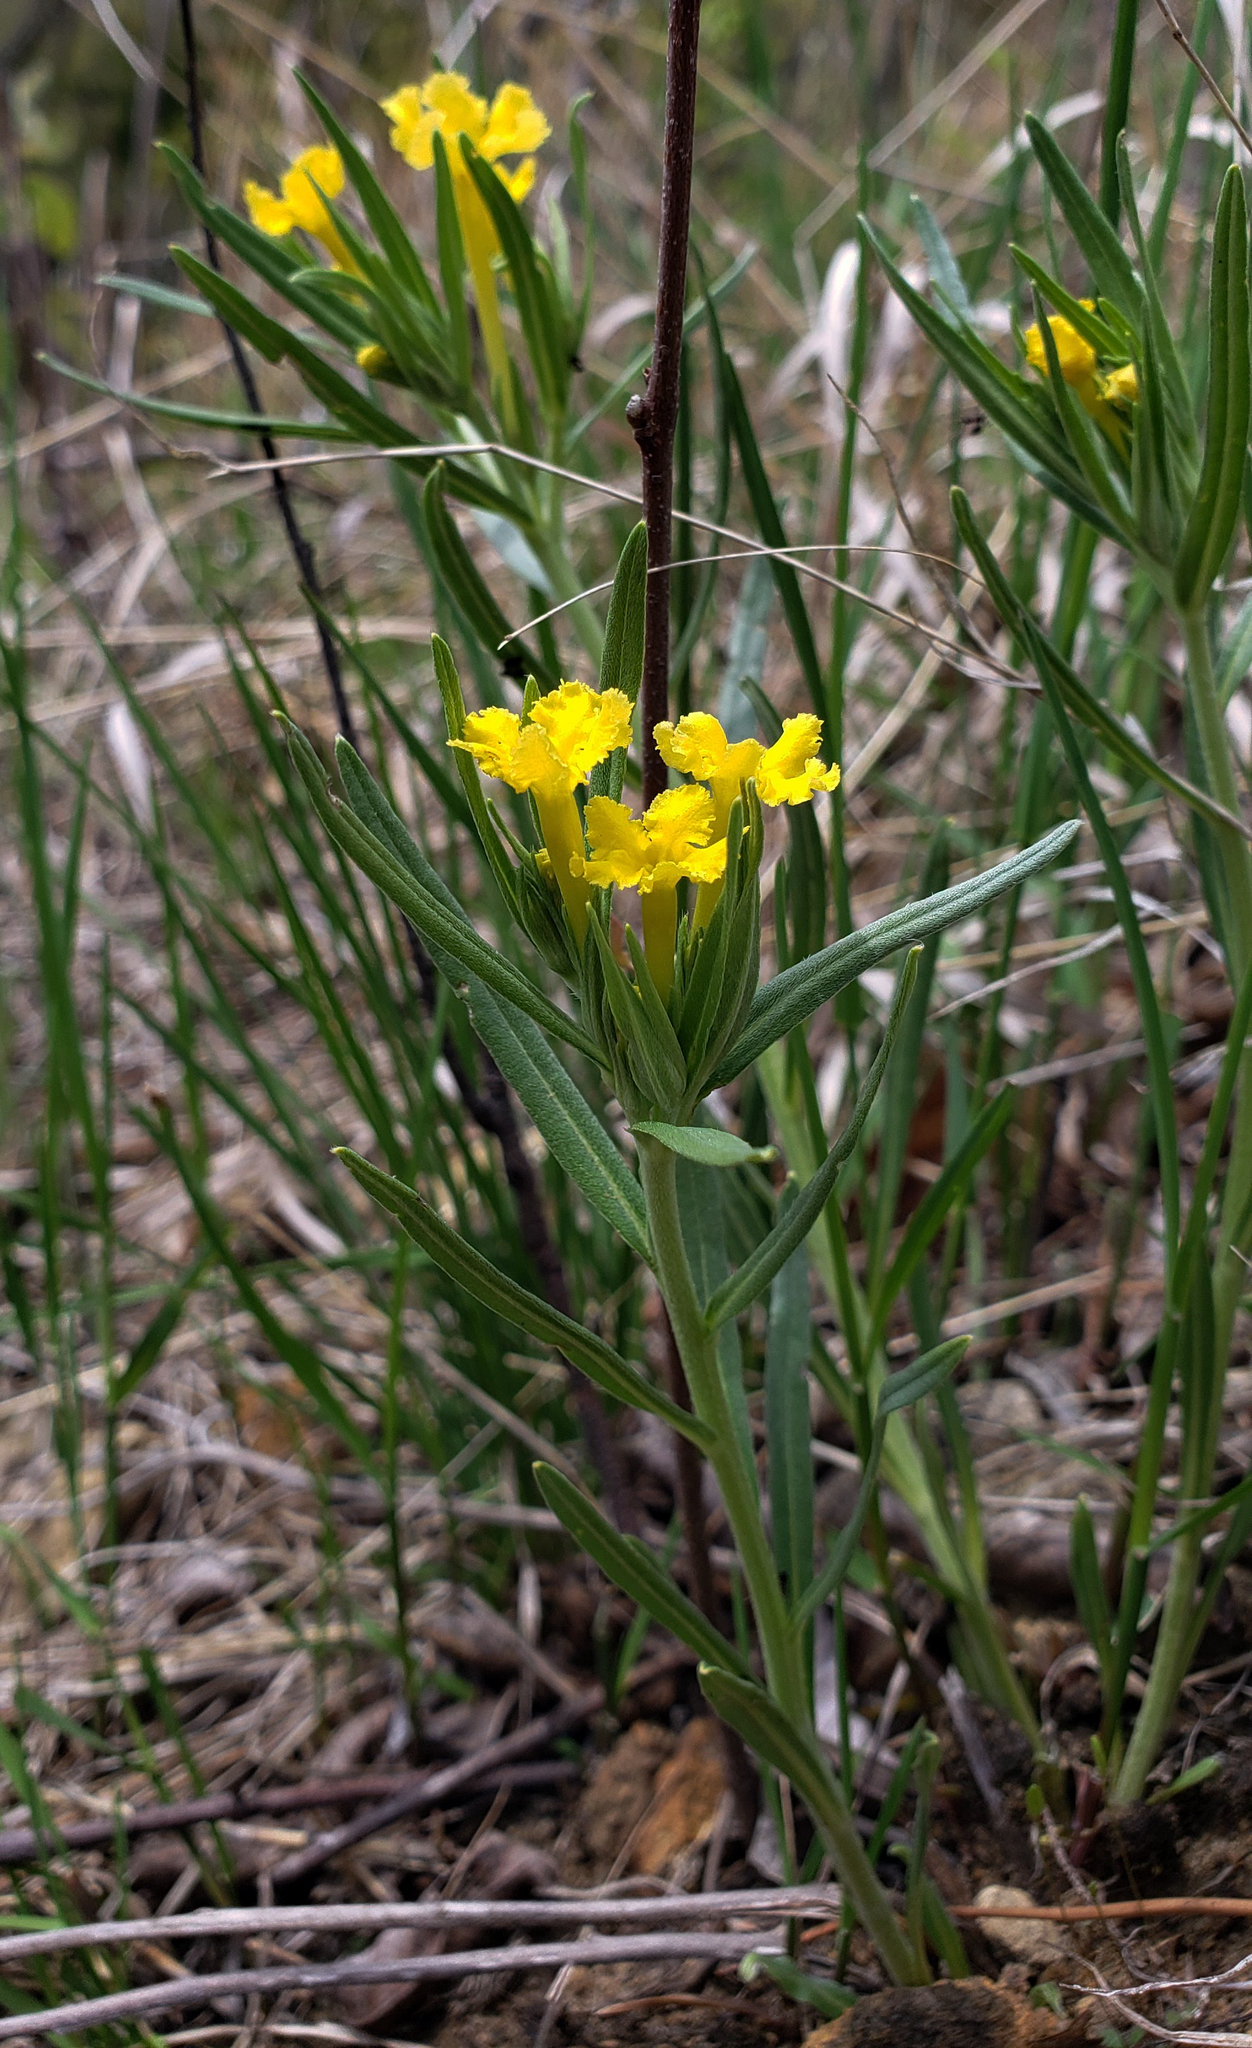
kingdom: Plantae
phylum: Tracheophyta
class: Magnoliopsida
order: Boraginales
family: Boraginaceae
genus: Lithospermum
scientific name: Lithospermum incisum
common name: Fringed gromwell
